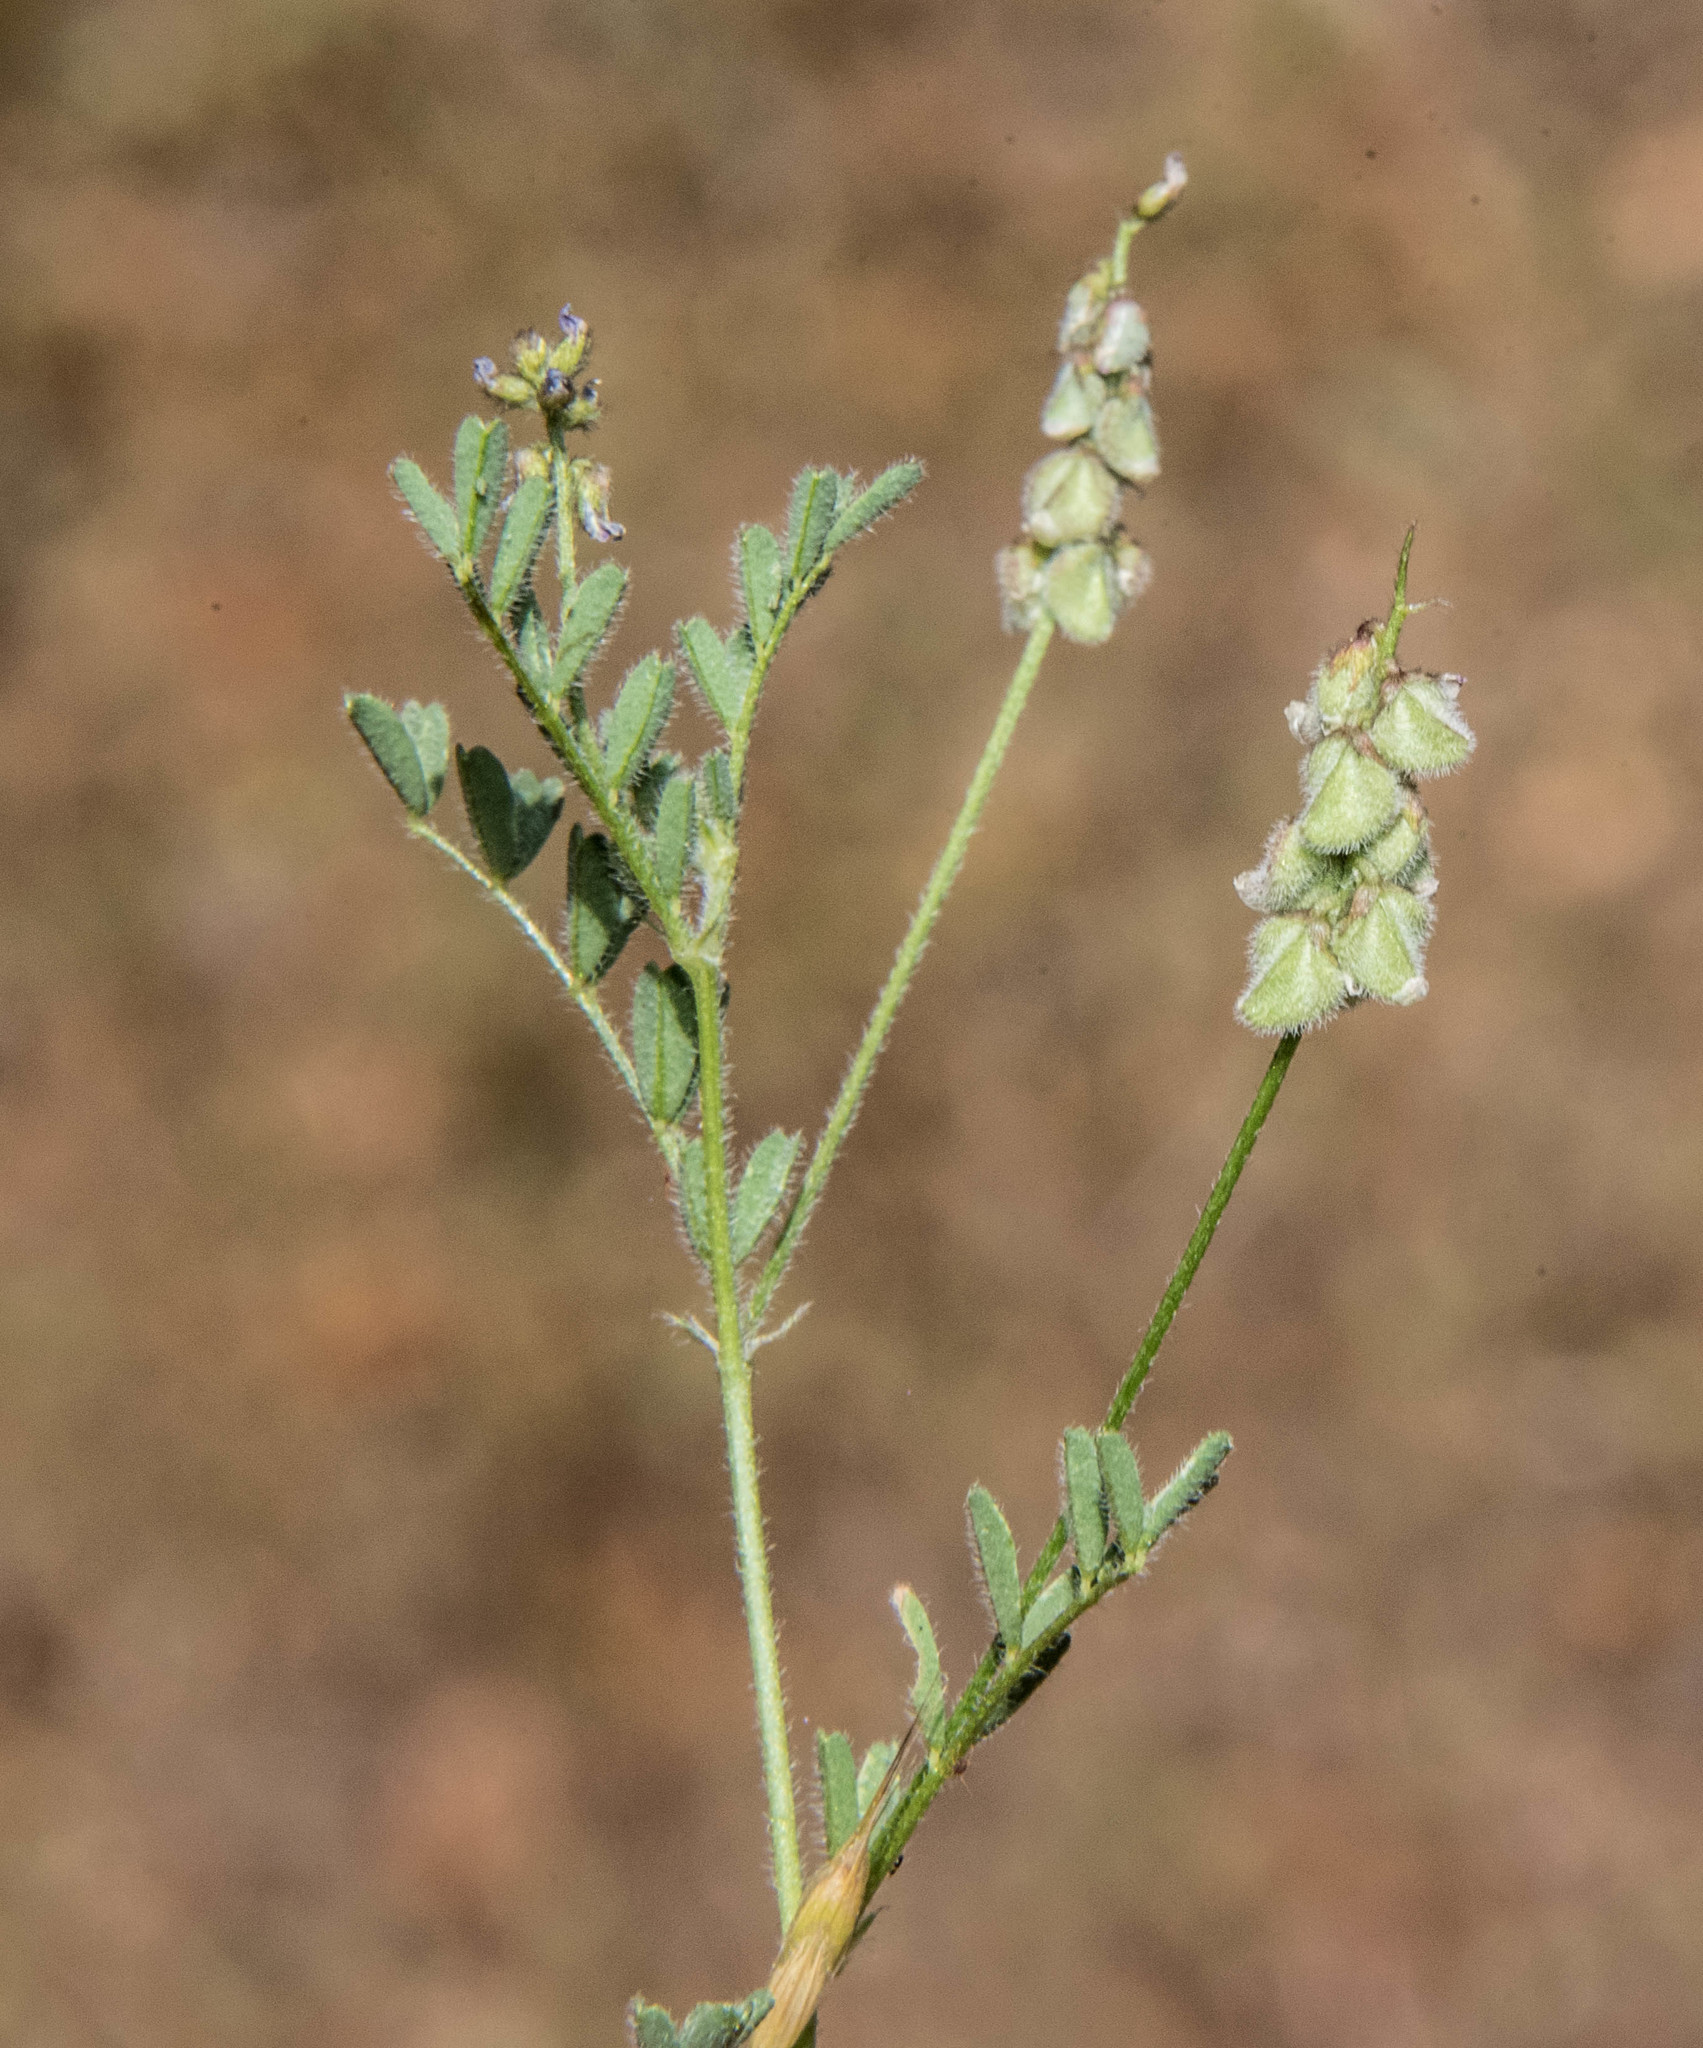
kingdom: Plantae
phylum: Tracheophyta
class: Magnoliopsida
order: Fabales
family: Fabaceae
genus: Astragalus
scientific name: Astragalus gambelianus
